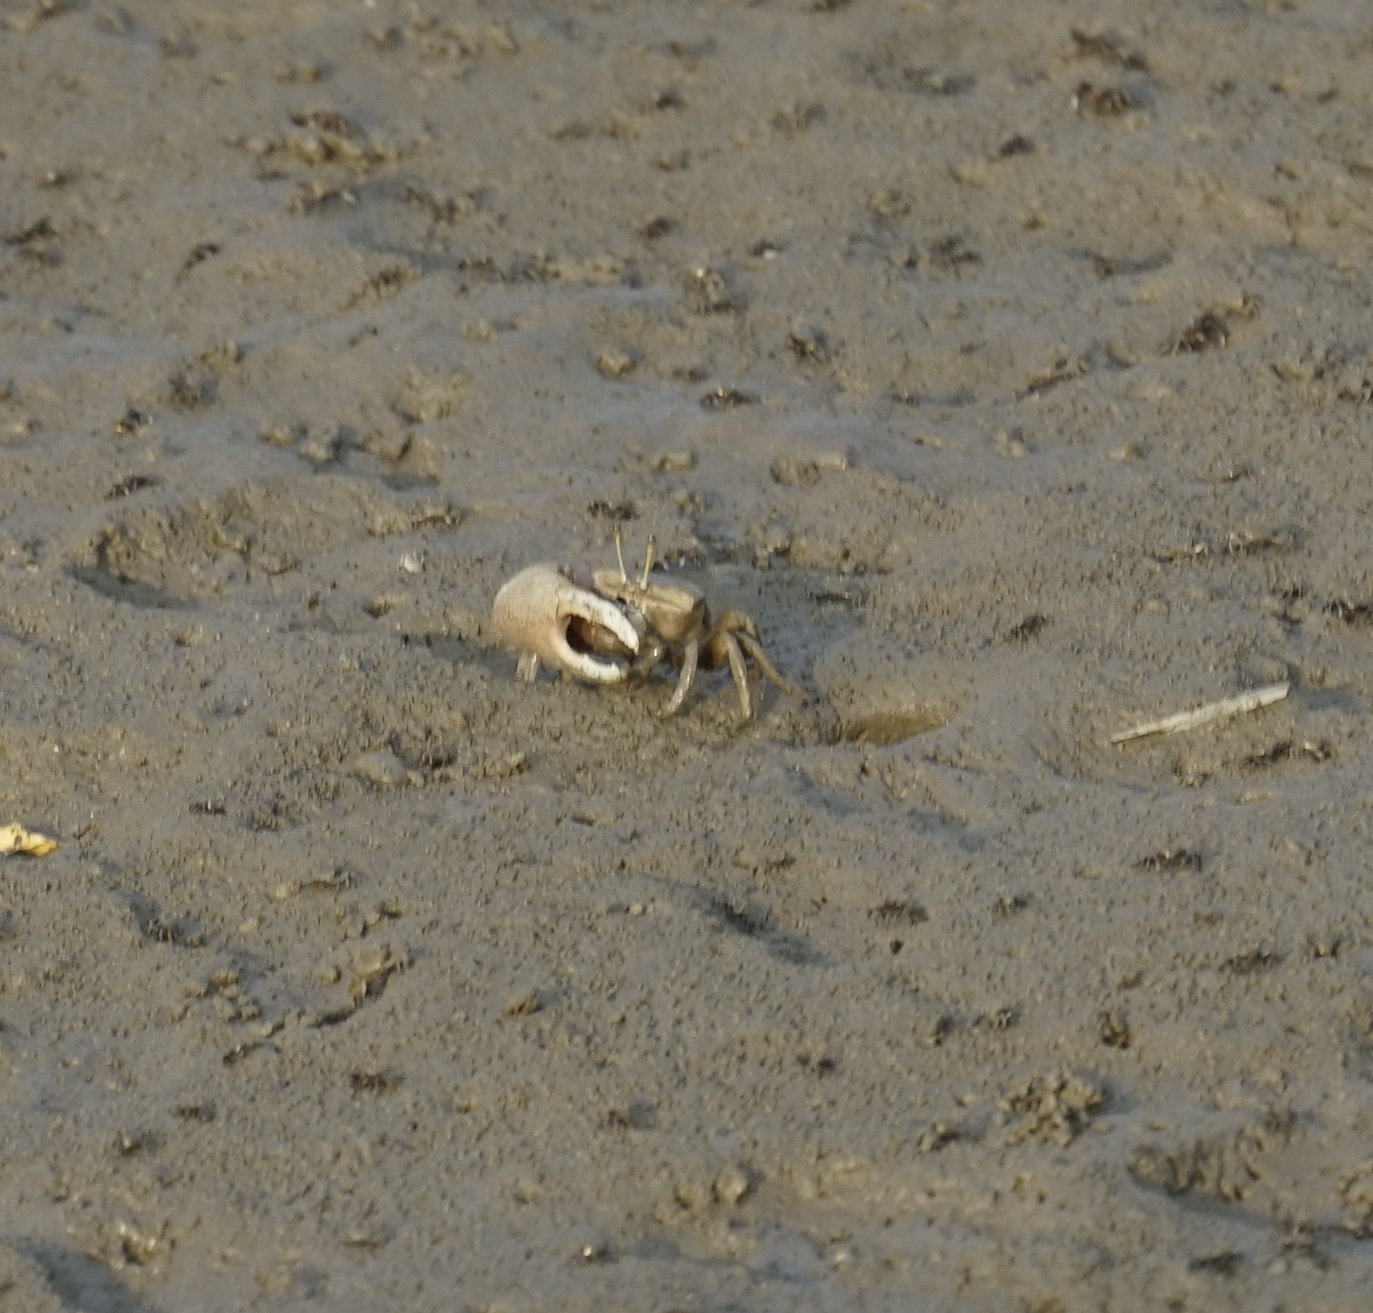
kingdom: Animalia
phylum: Arthropoda
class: Malacostraca
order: Decapoda
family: Ocypodidae
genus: Tubuca
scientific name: Tubuca arcuata
